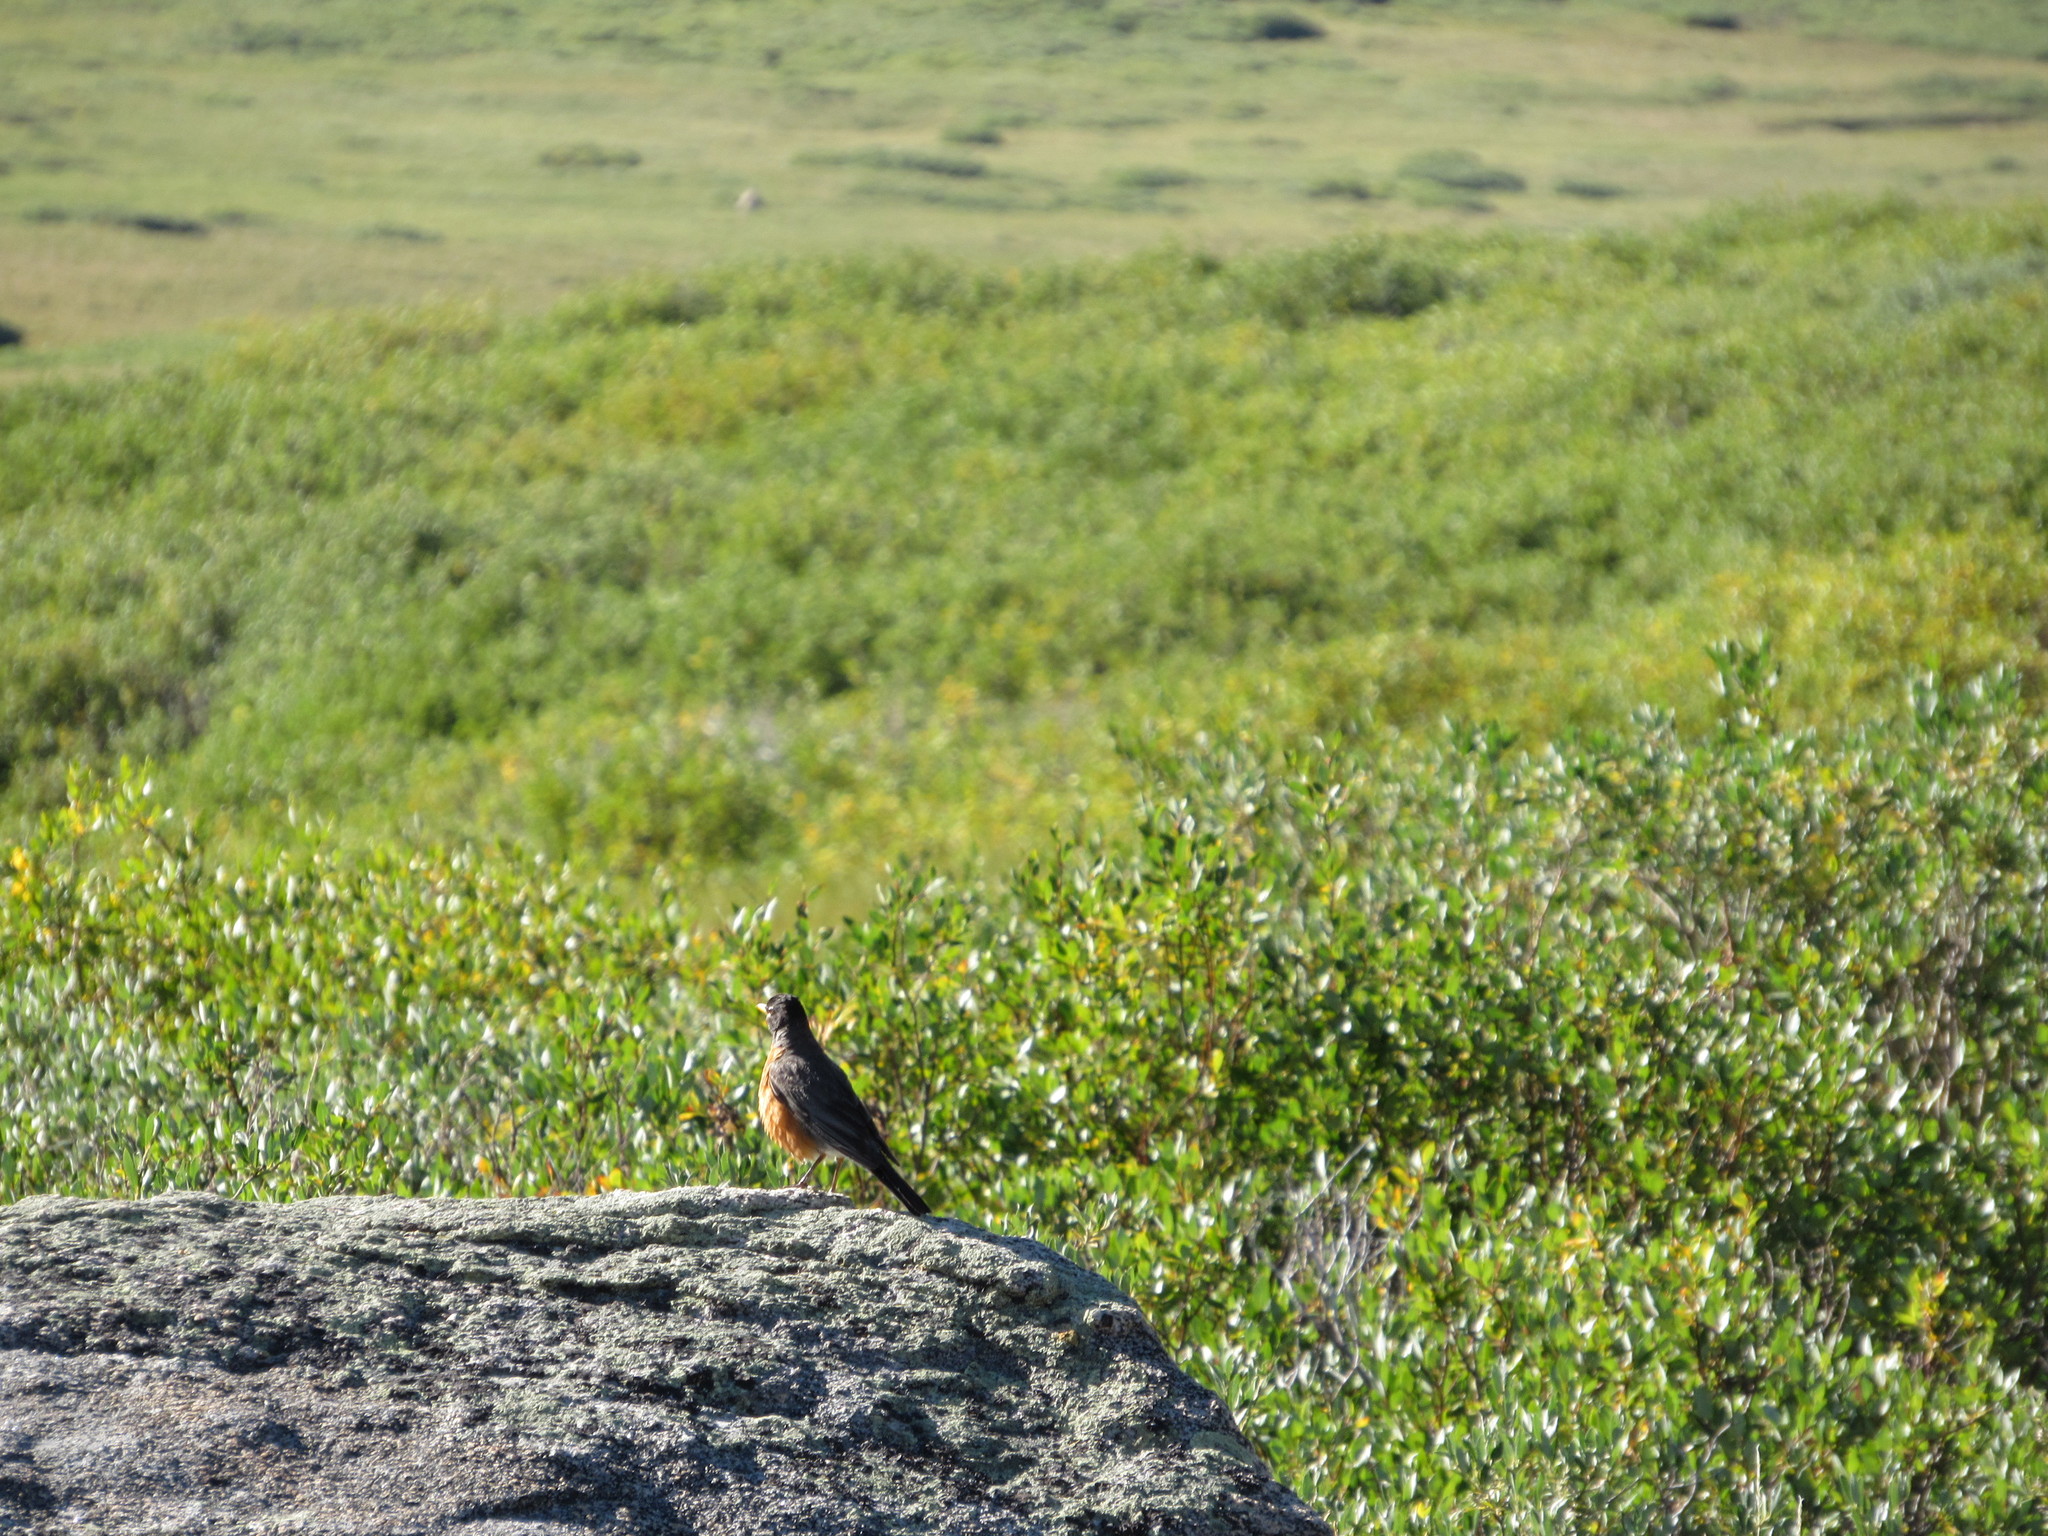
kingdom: Animalia
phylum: Chordata
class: Aves
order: Passeriformes
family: Turdidae
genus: Turdus
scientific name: Turdus migratorius
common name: American robin
